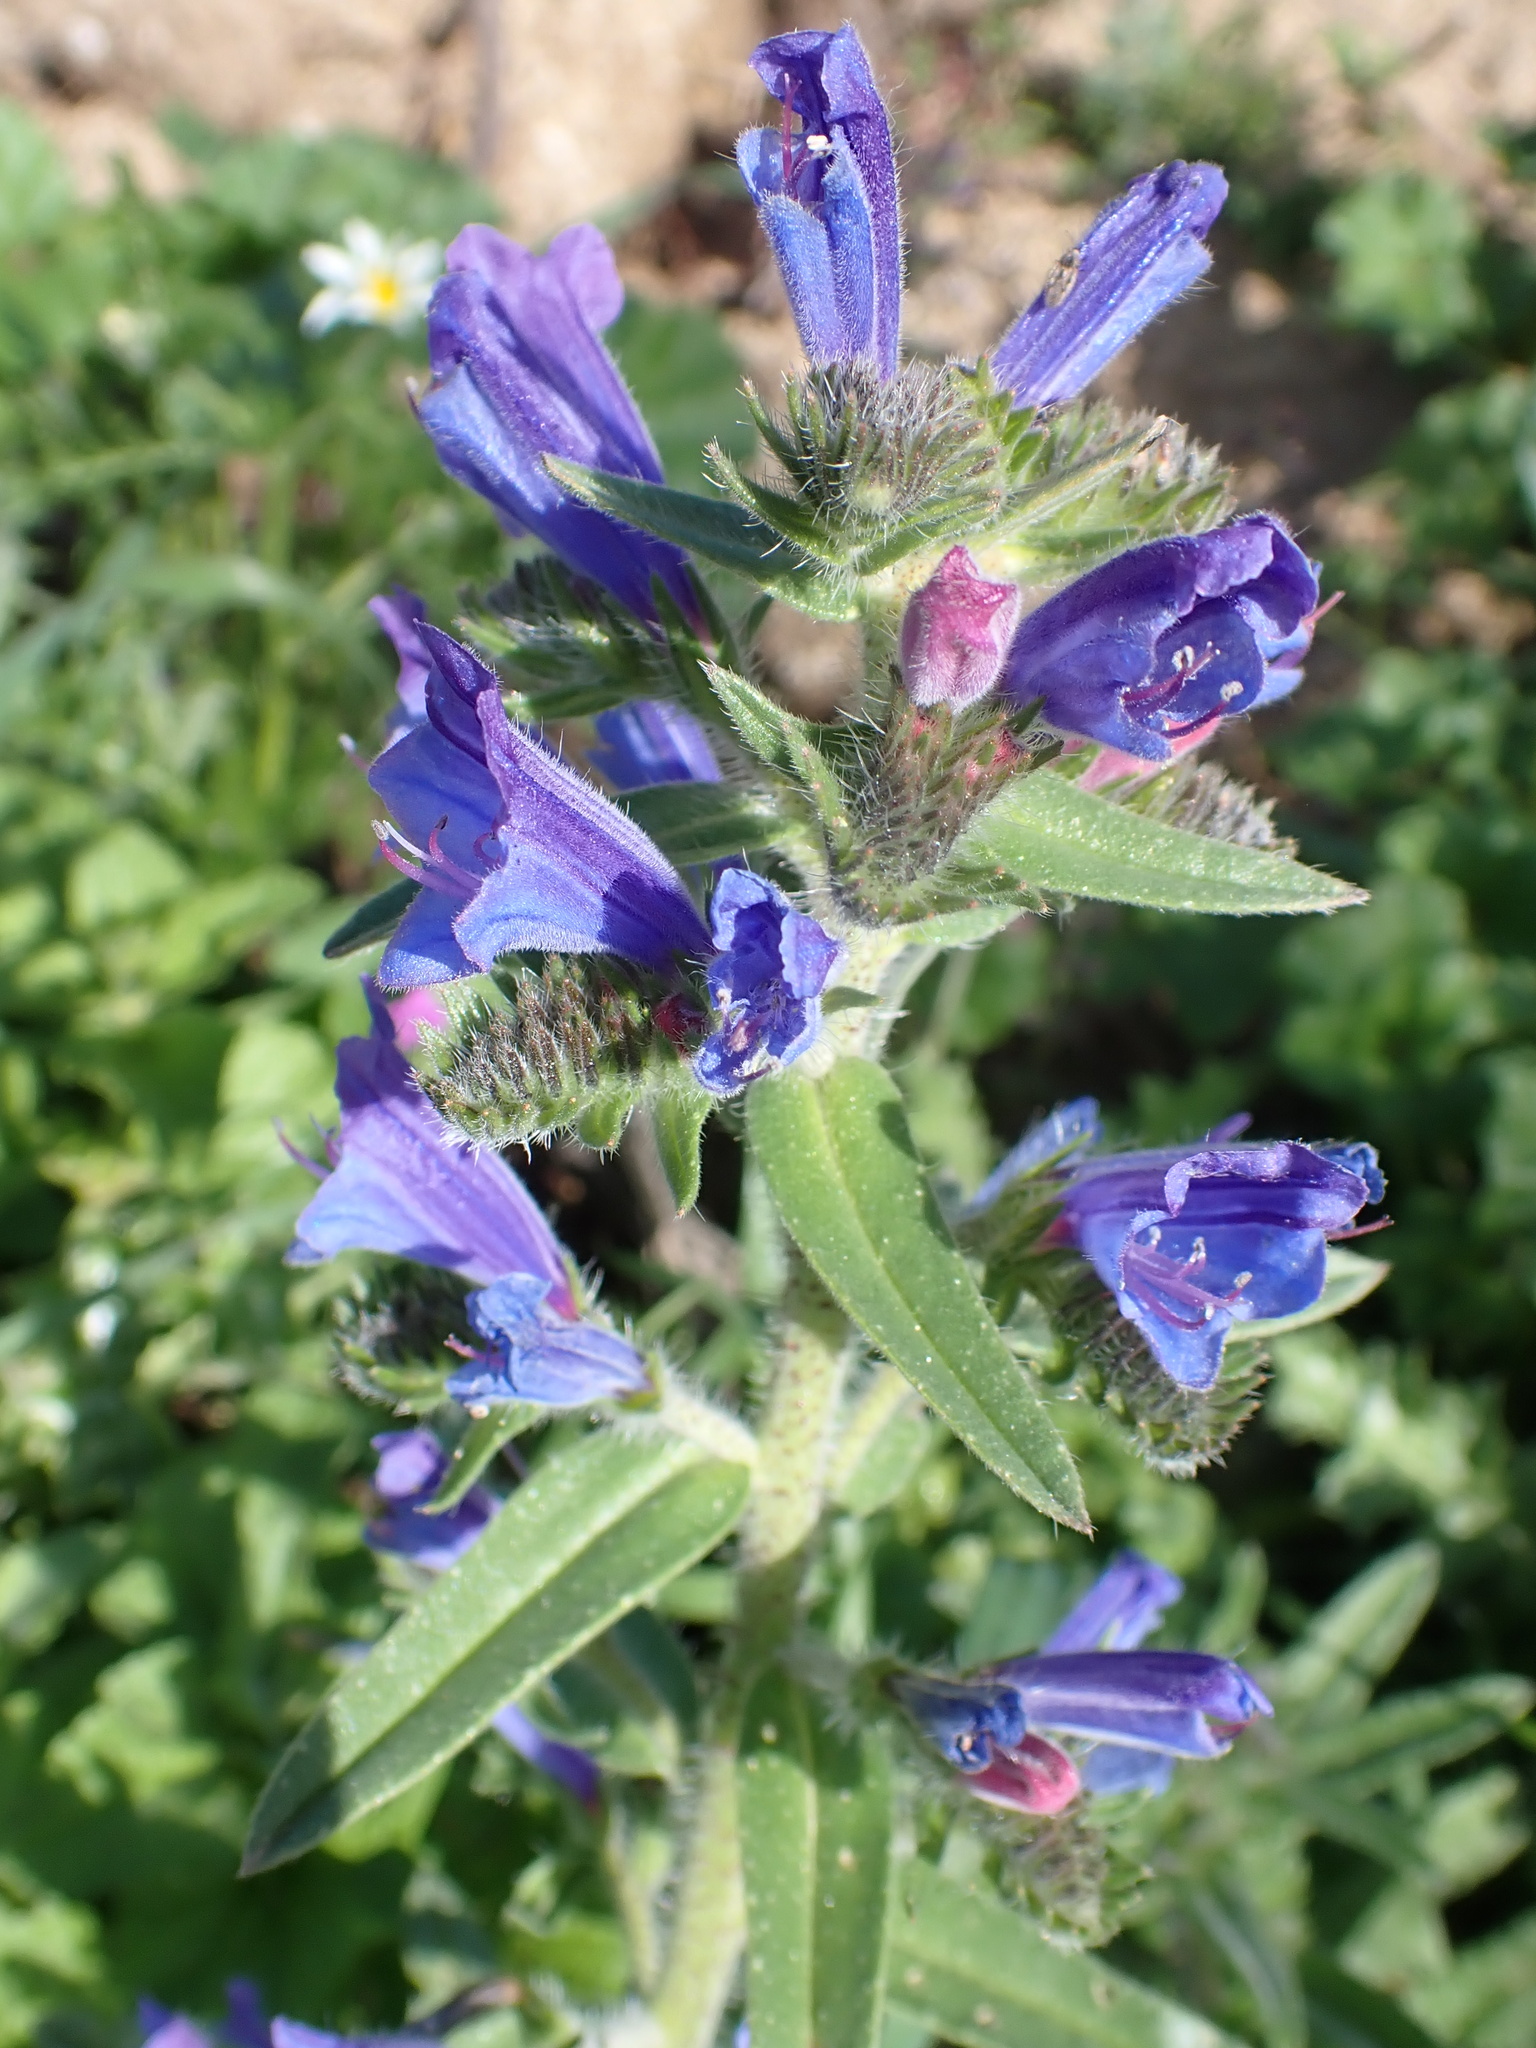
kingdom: Plantae
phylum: Tracheophyta
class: Magnoliopsida
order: Boraginales
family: Boraginaceae
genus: Echium
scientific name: Echium creticum
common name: Cretan viper's bugloss
